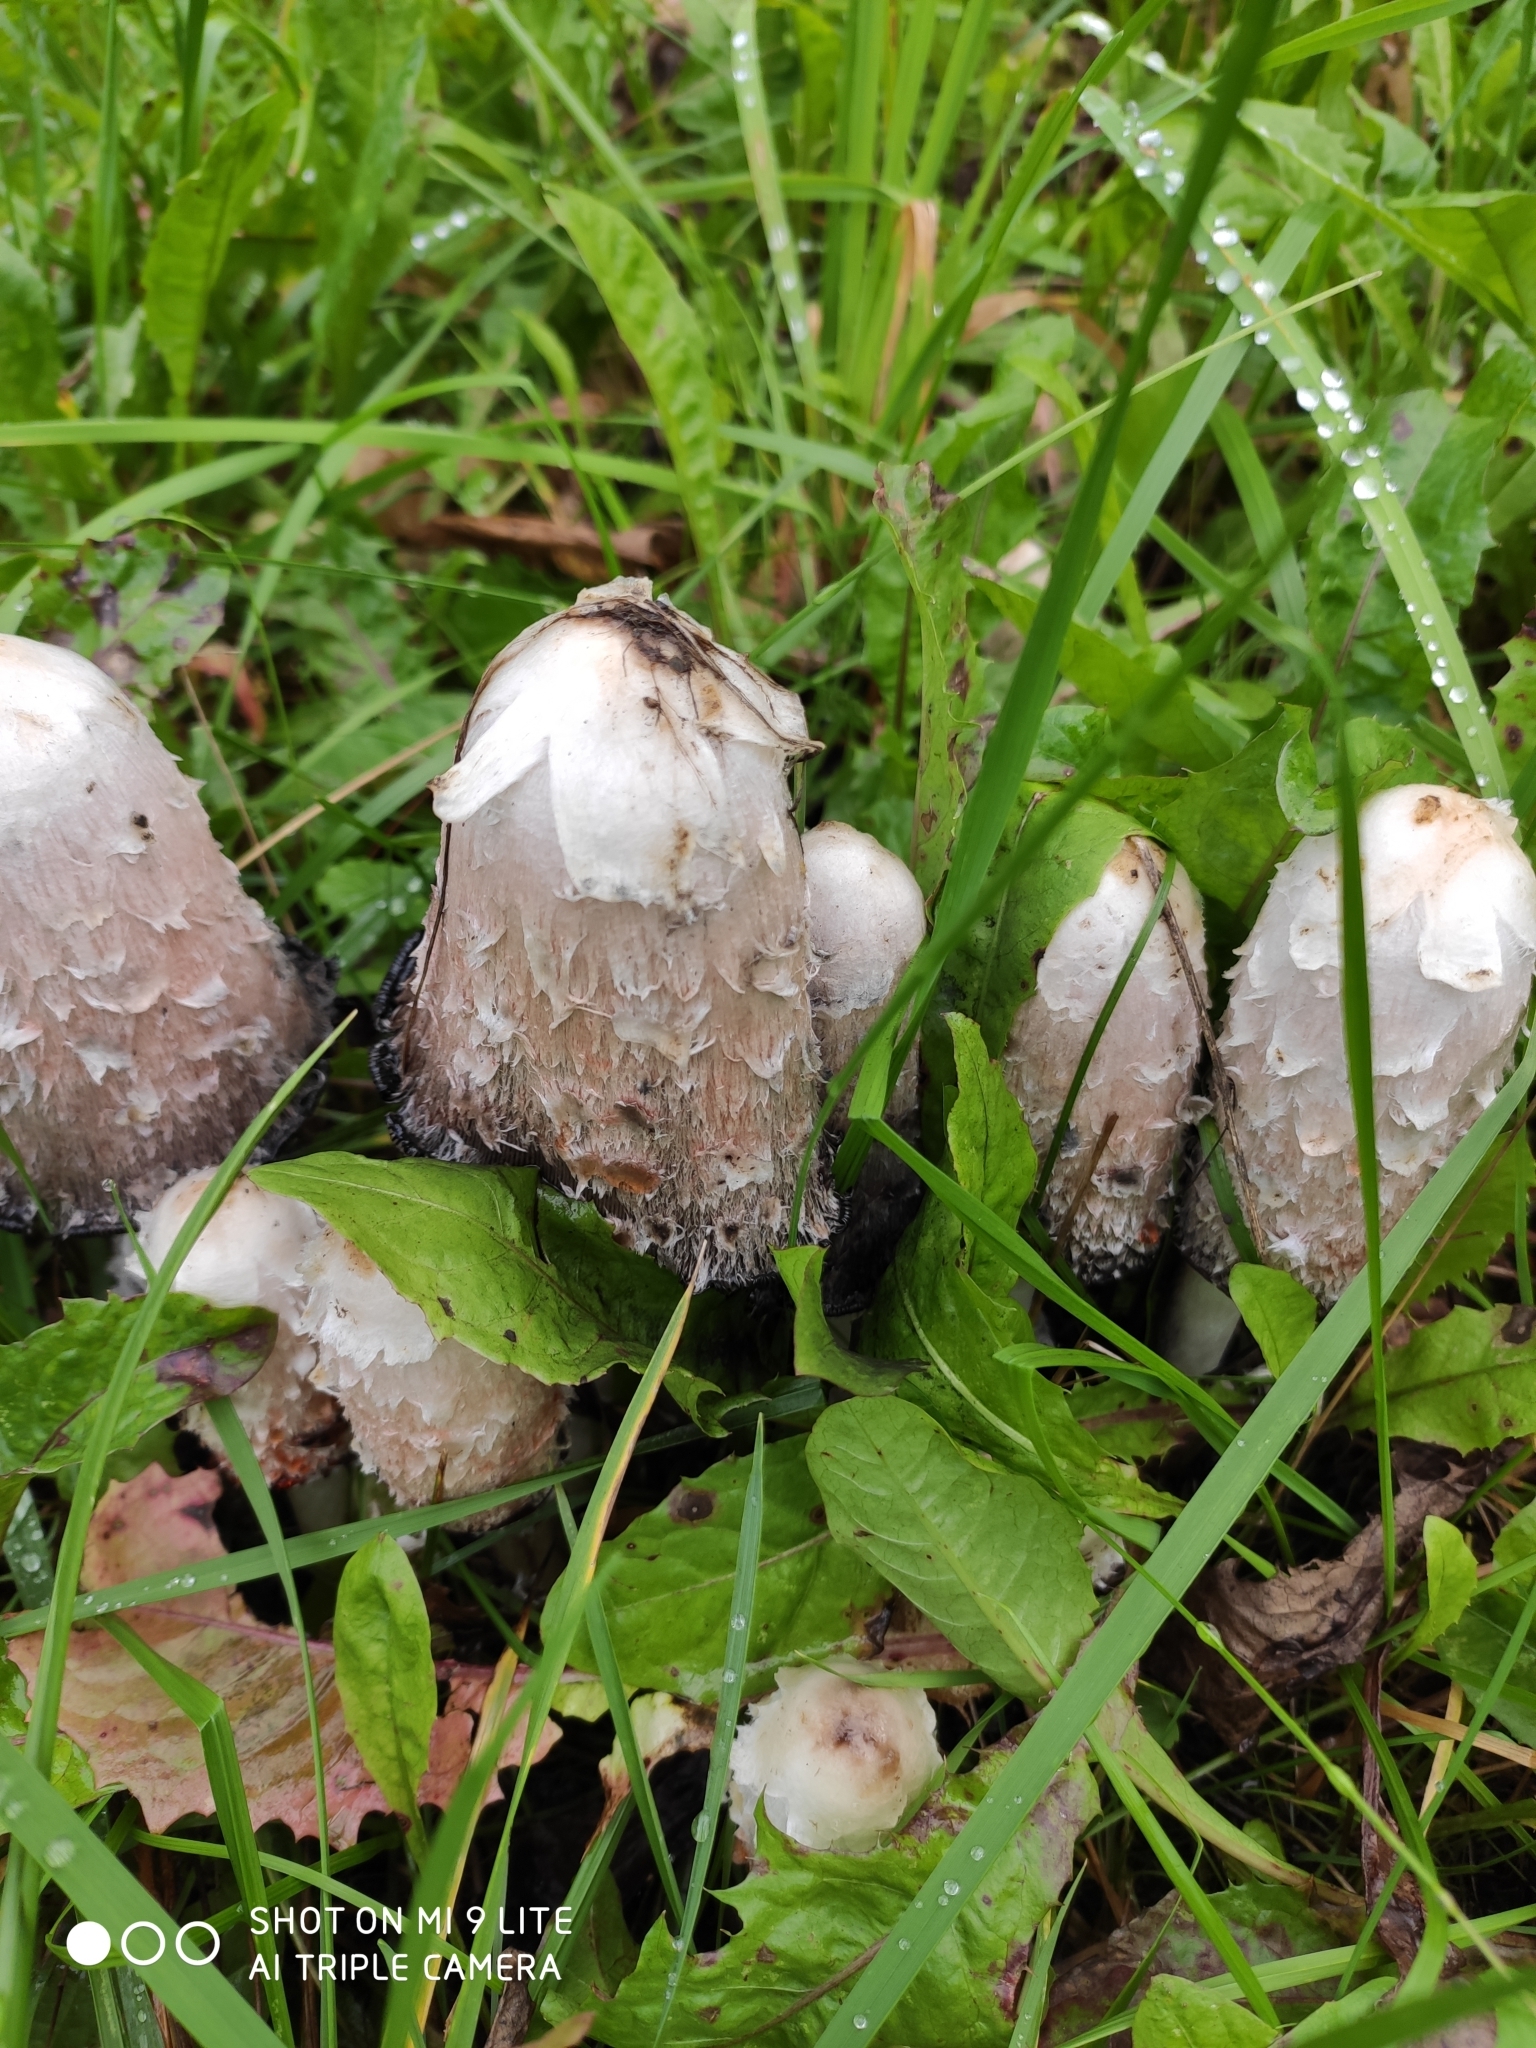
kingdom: Fungi
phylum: Basidiomycota
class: Agaricomycetes
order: Agaricales
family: Agaricaceae
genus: Coprinus
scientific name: Coprinus comatus
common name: Lawyer's wig
